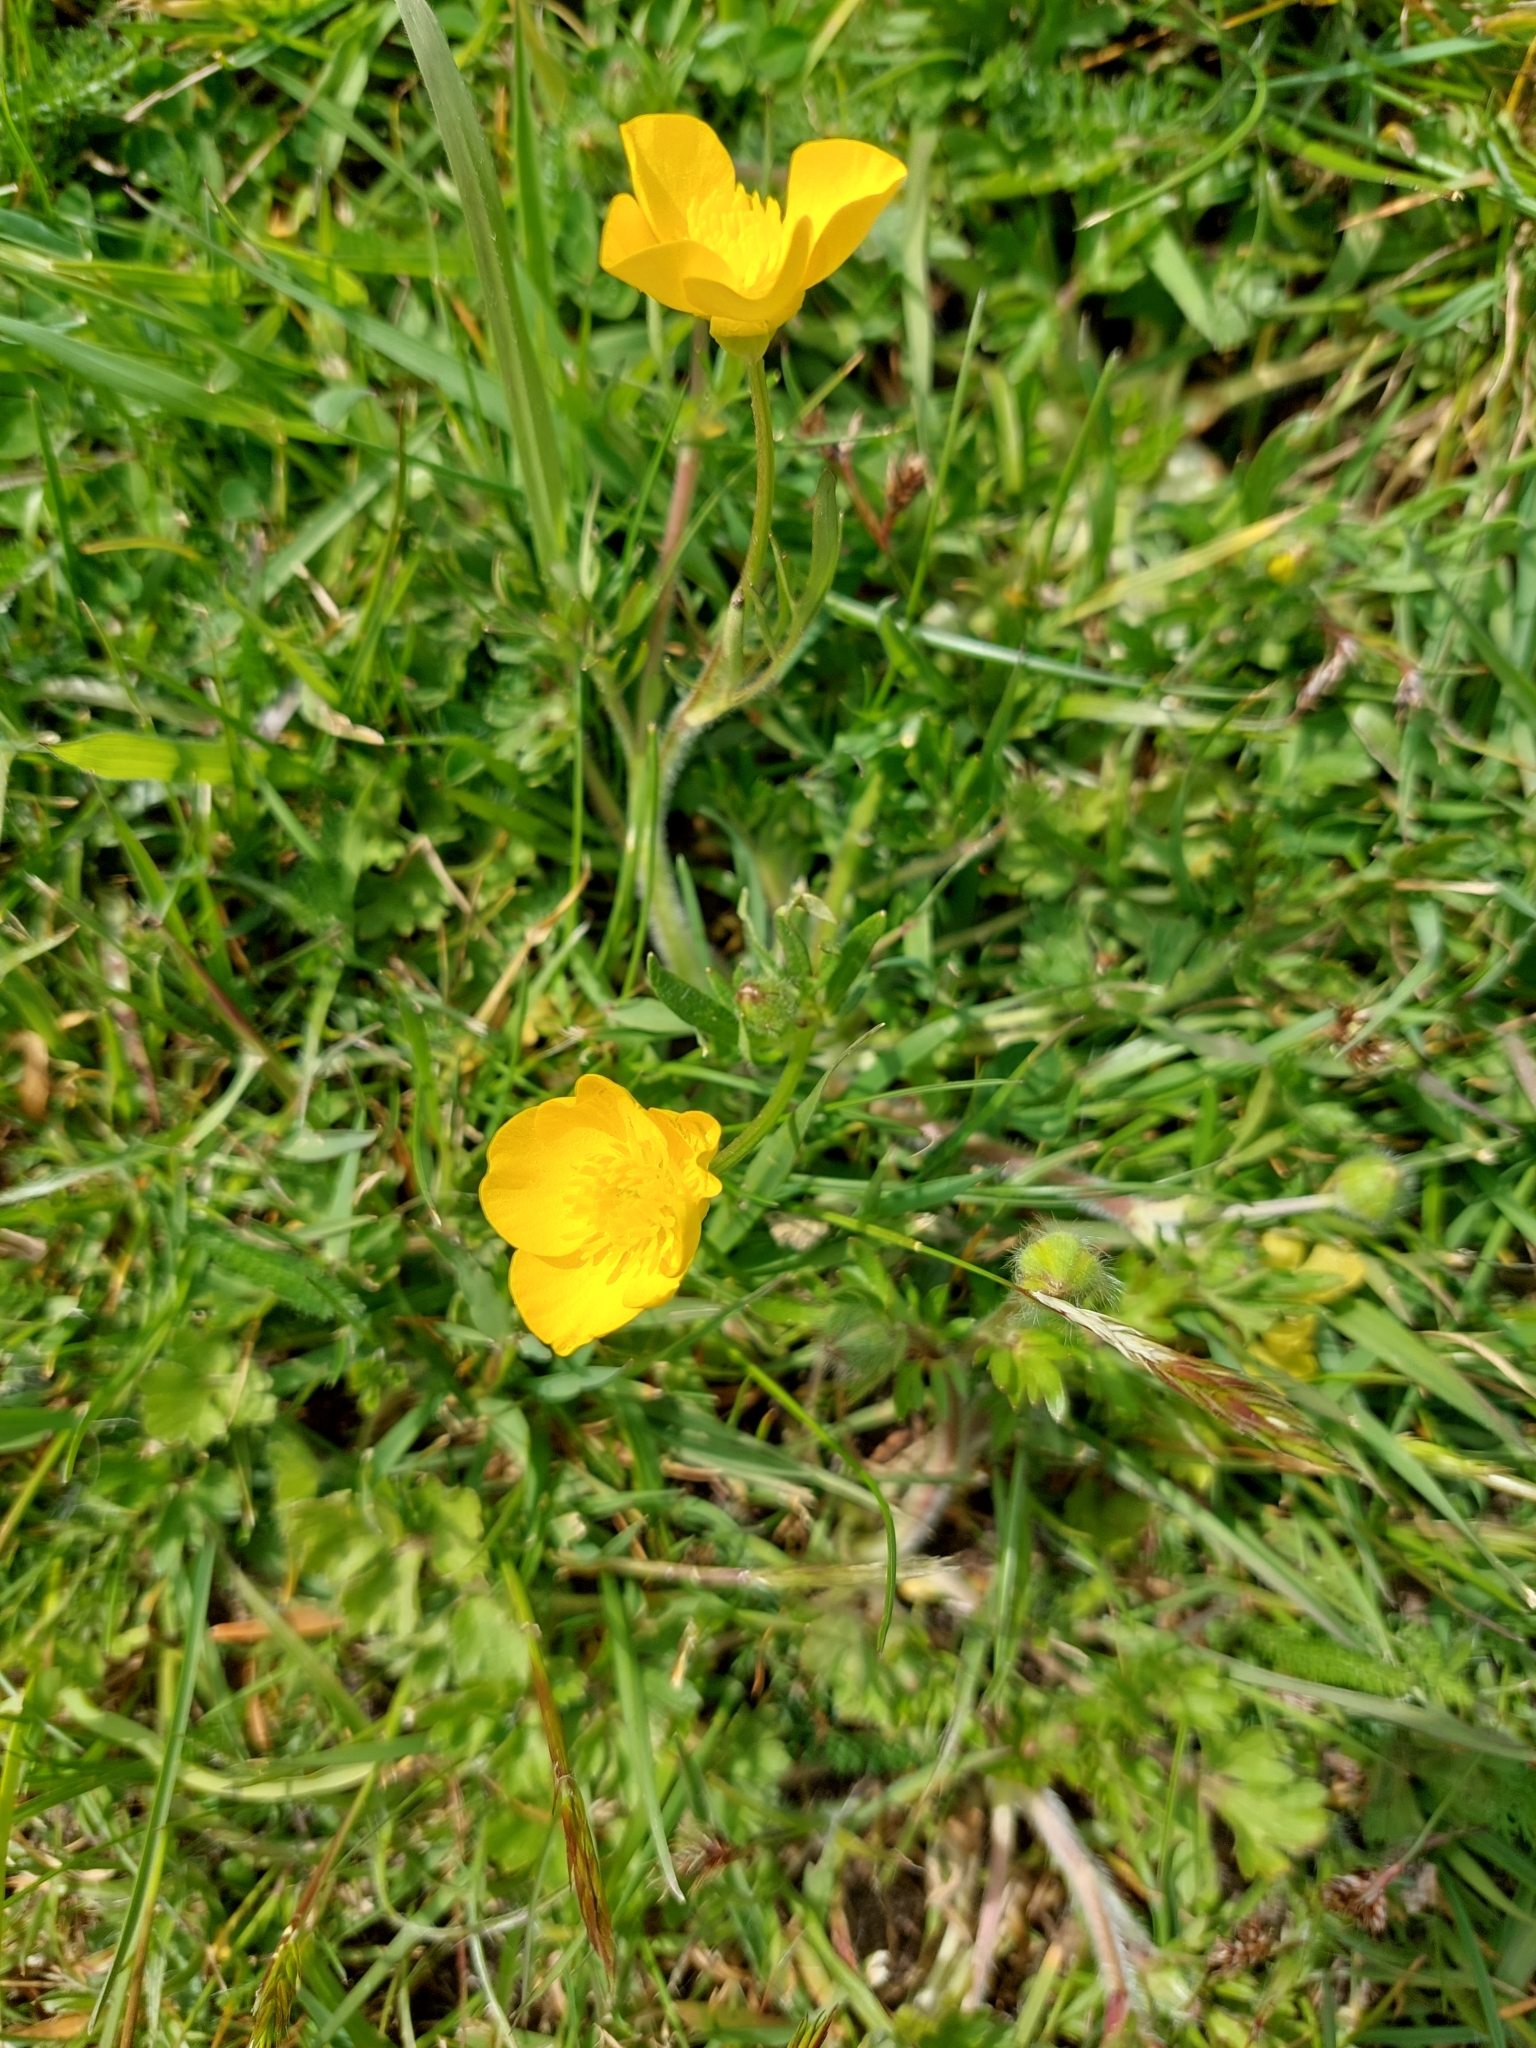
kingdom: Plantae
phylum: Tracheophyta
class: Magnoliopsida
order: Ranunculales
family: Ranunculaceae
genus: Ranunculus
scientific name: Ranunculus bulbosus
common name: Bulbous buttercup
